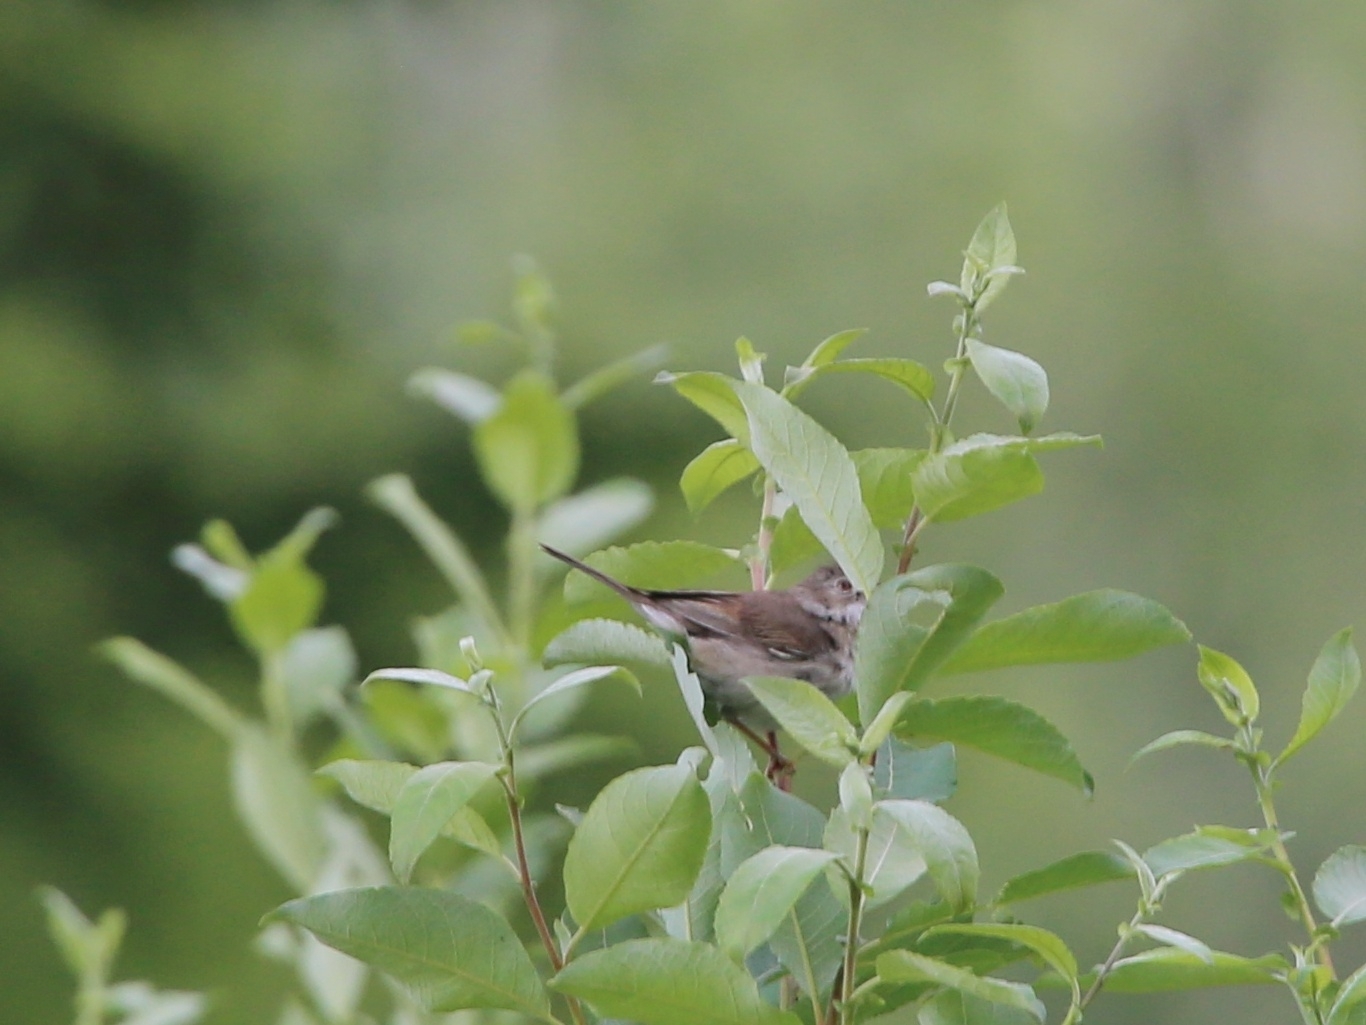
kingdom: Animalia
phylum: Chordata
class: Aves
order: Passeriformes
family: Sylviidae
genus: Sylvia
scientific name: Sylvia communis
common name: Common whitethroat
